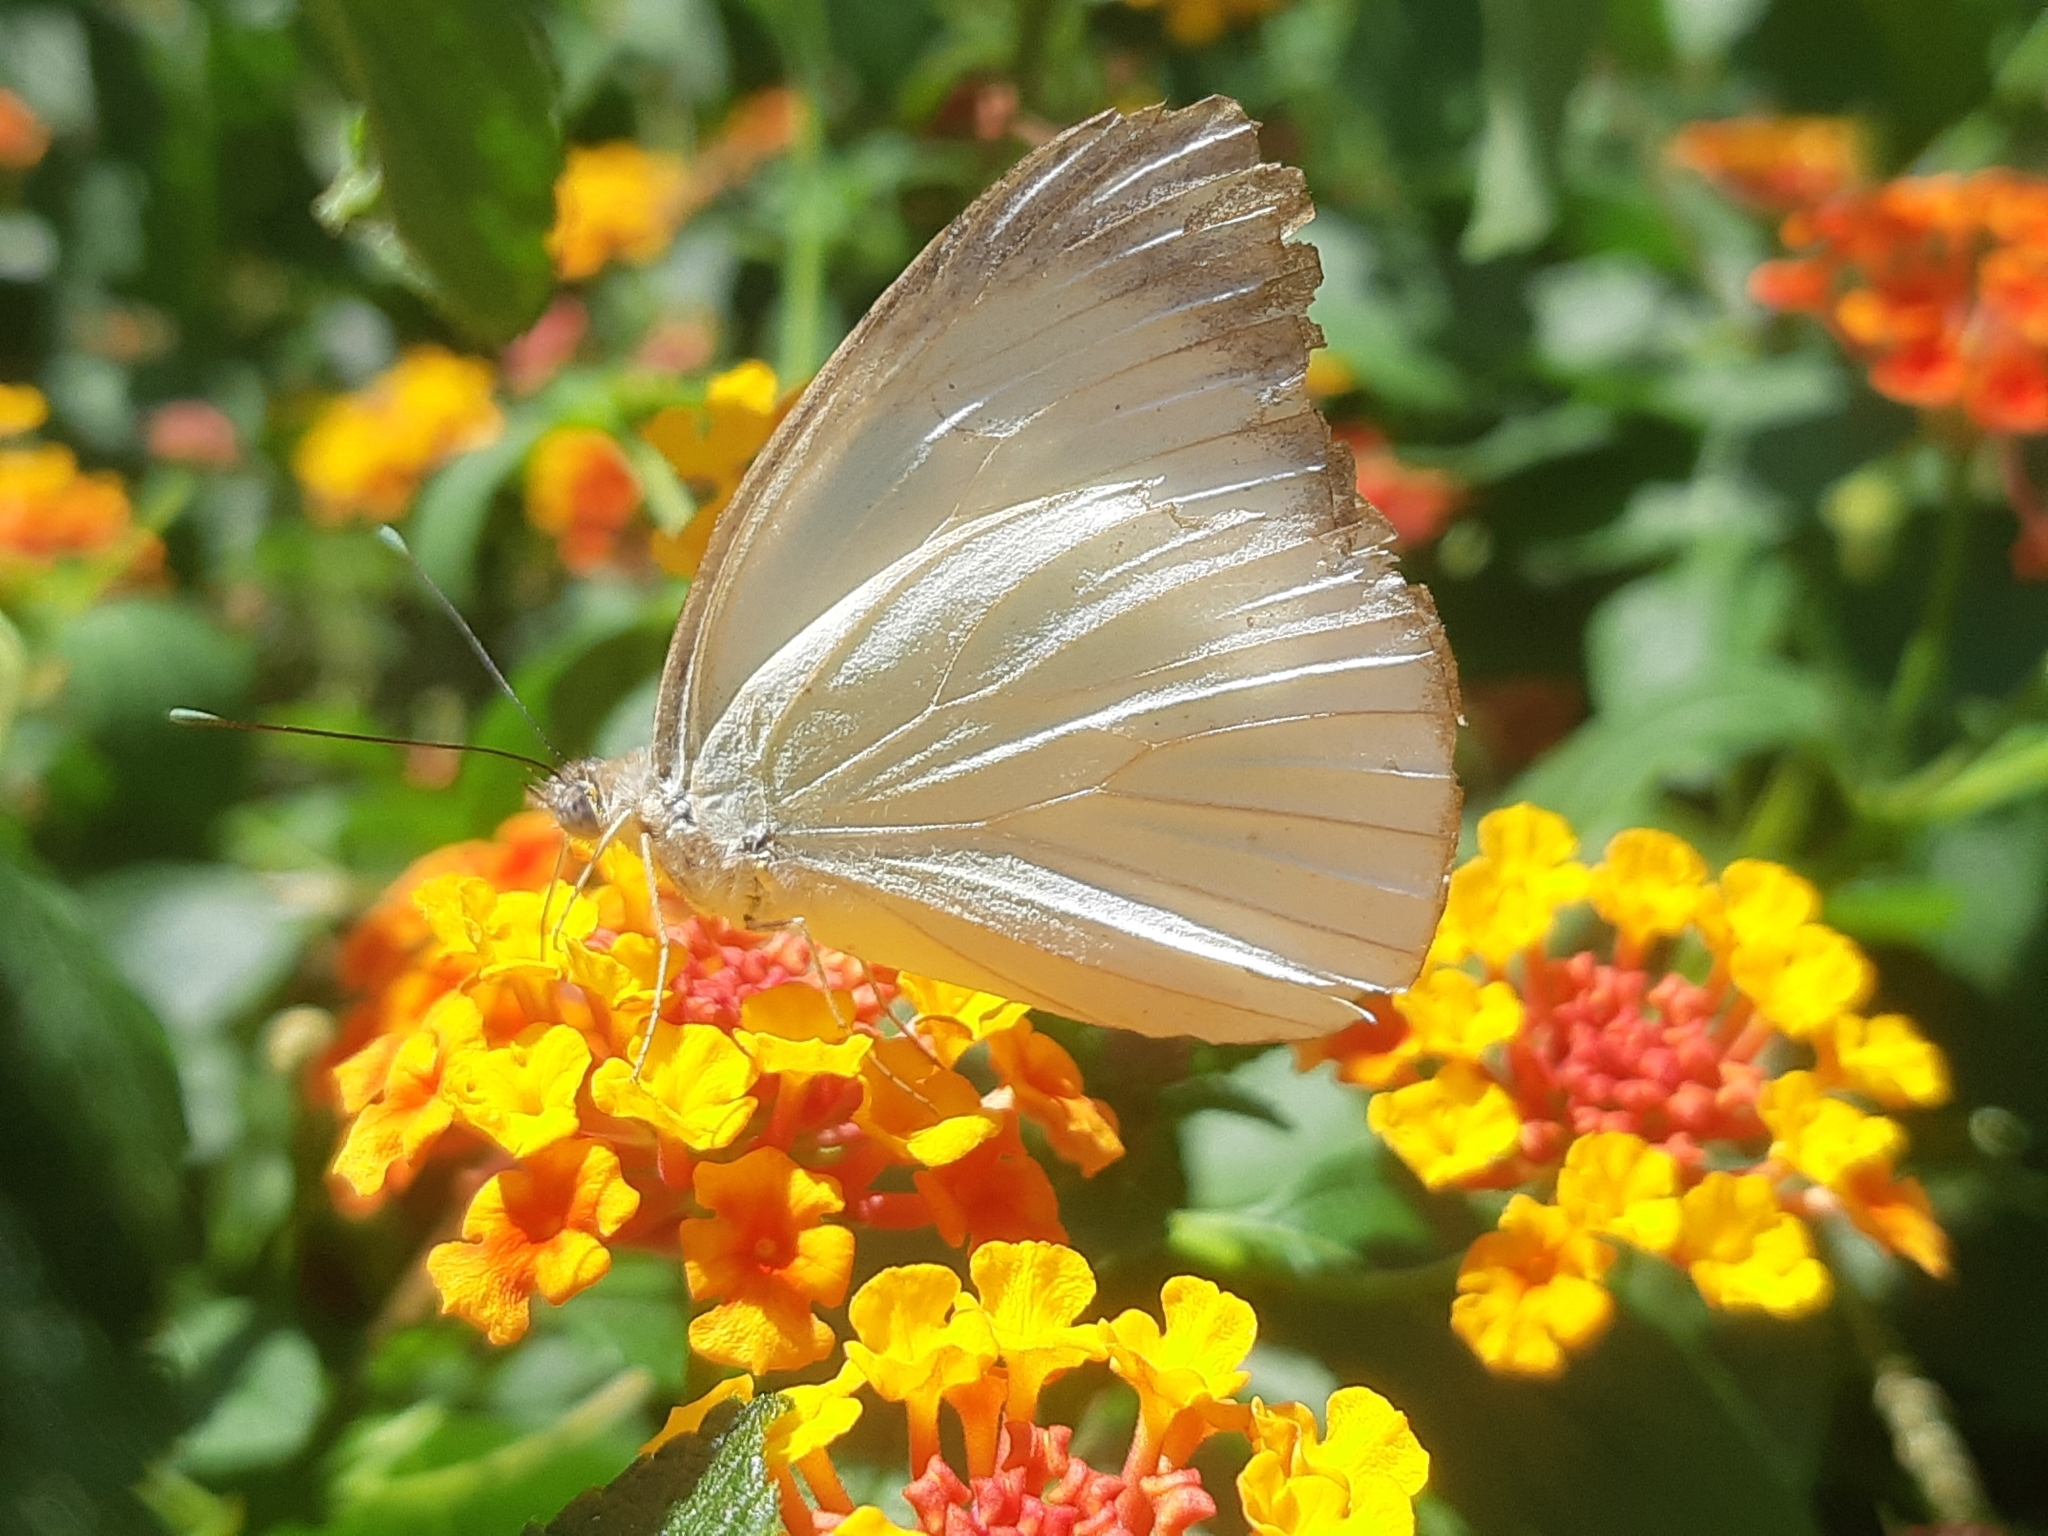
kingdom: Animalia
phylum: Arthropoda
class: Insecta
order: Lepidoptera
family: Pieridae
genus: Ascia
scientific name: Ascia monuste
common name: Great southern white
